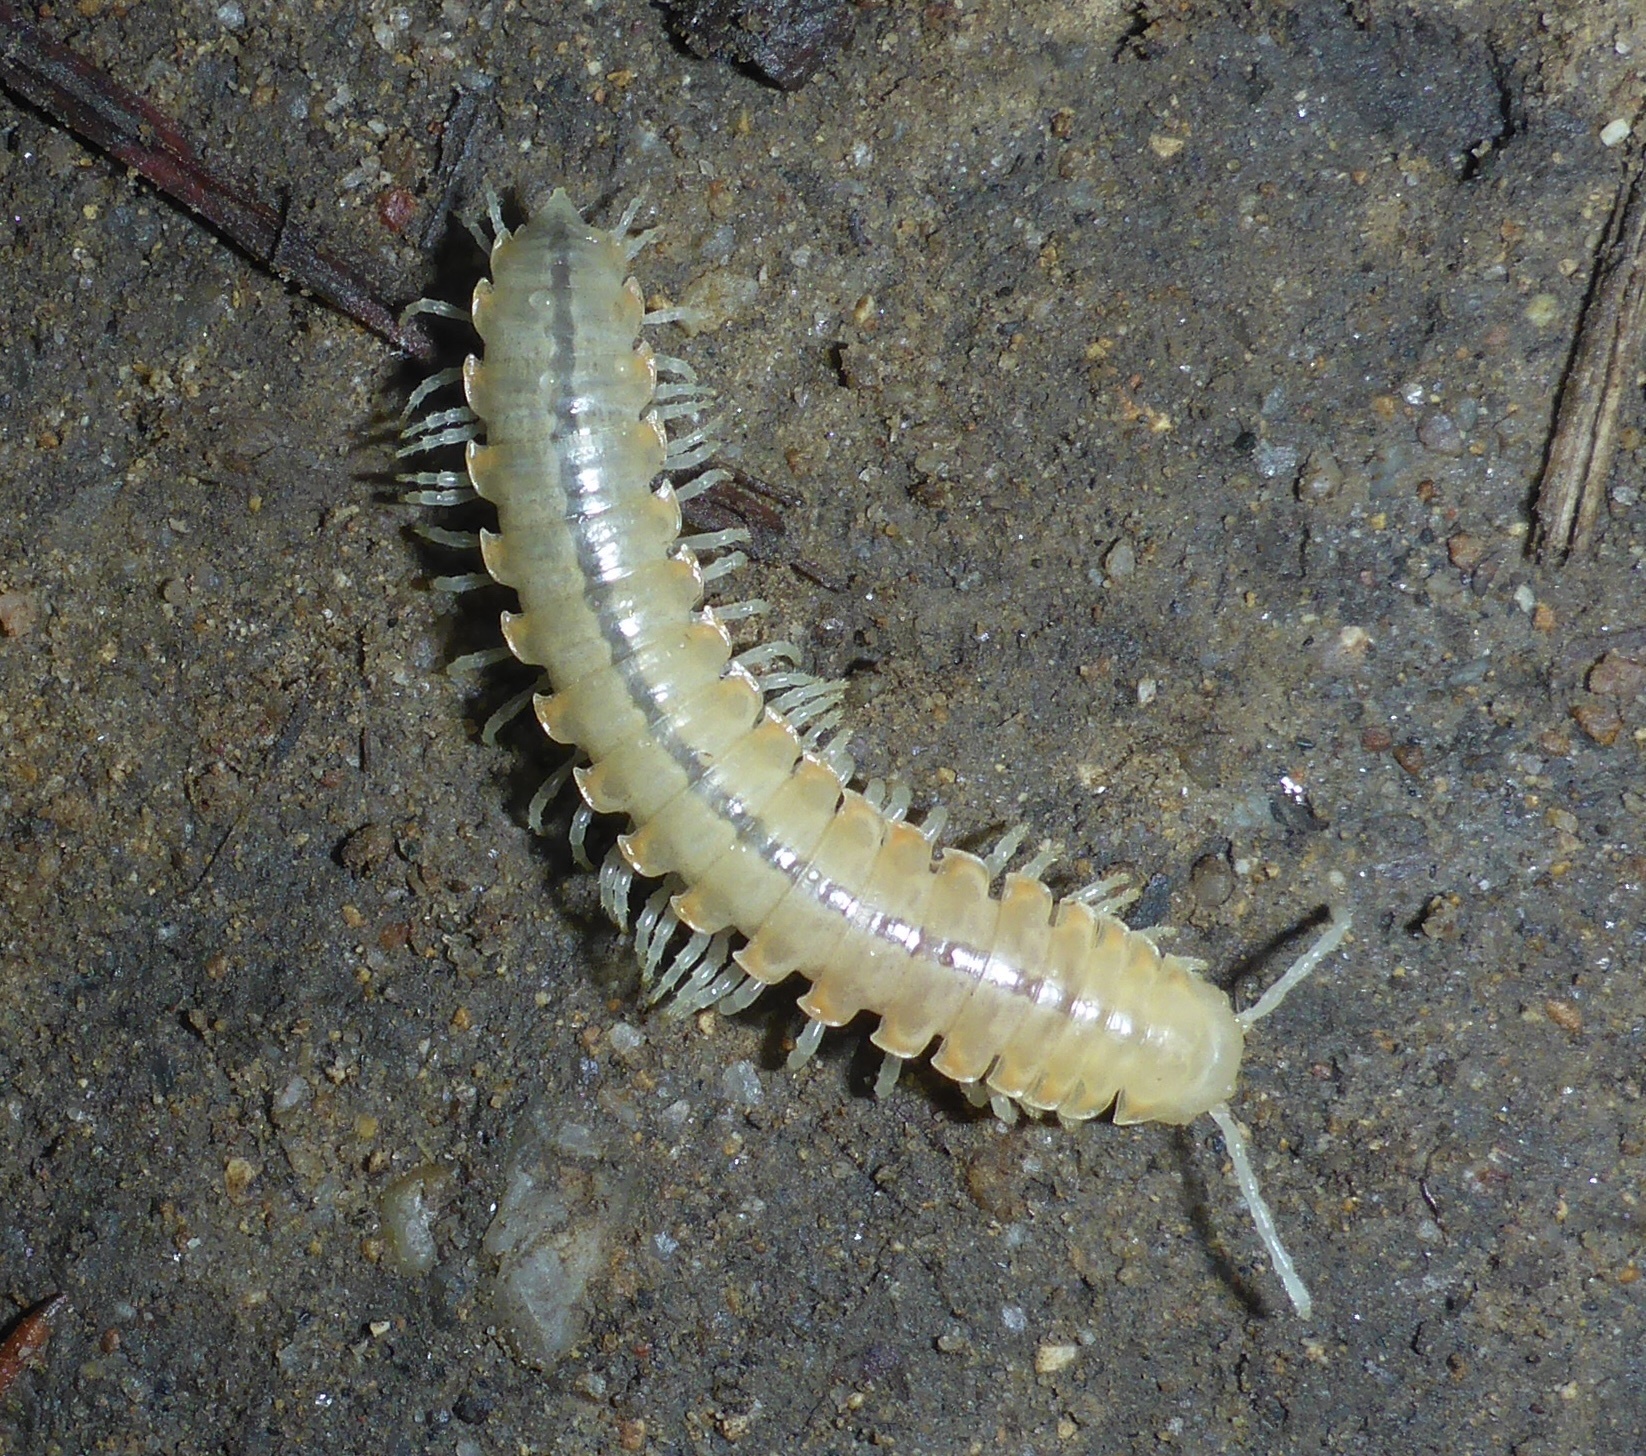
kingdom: Animalia
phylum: Arthropoda
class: Diplopoda
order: Polydesmida
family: Xystodesmidae
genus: Xystocheir
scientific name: Xystocheir dissecta
